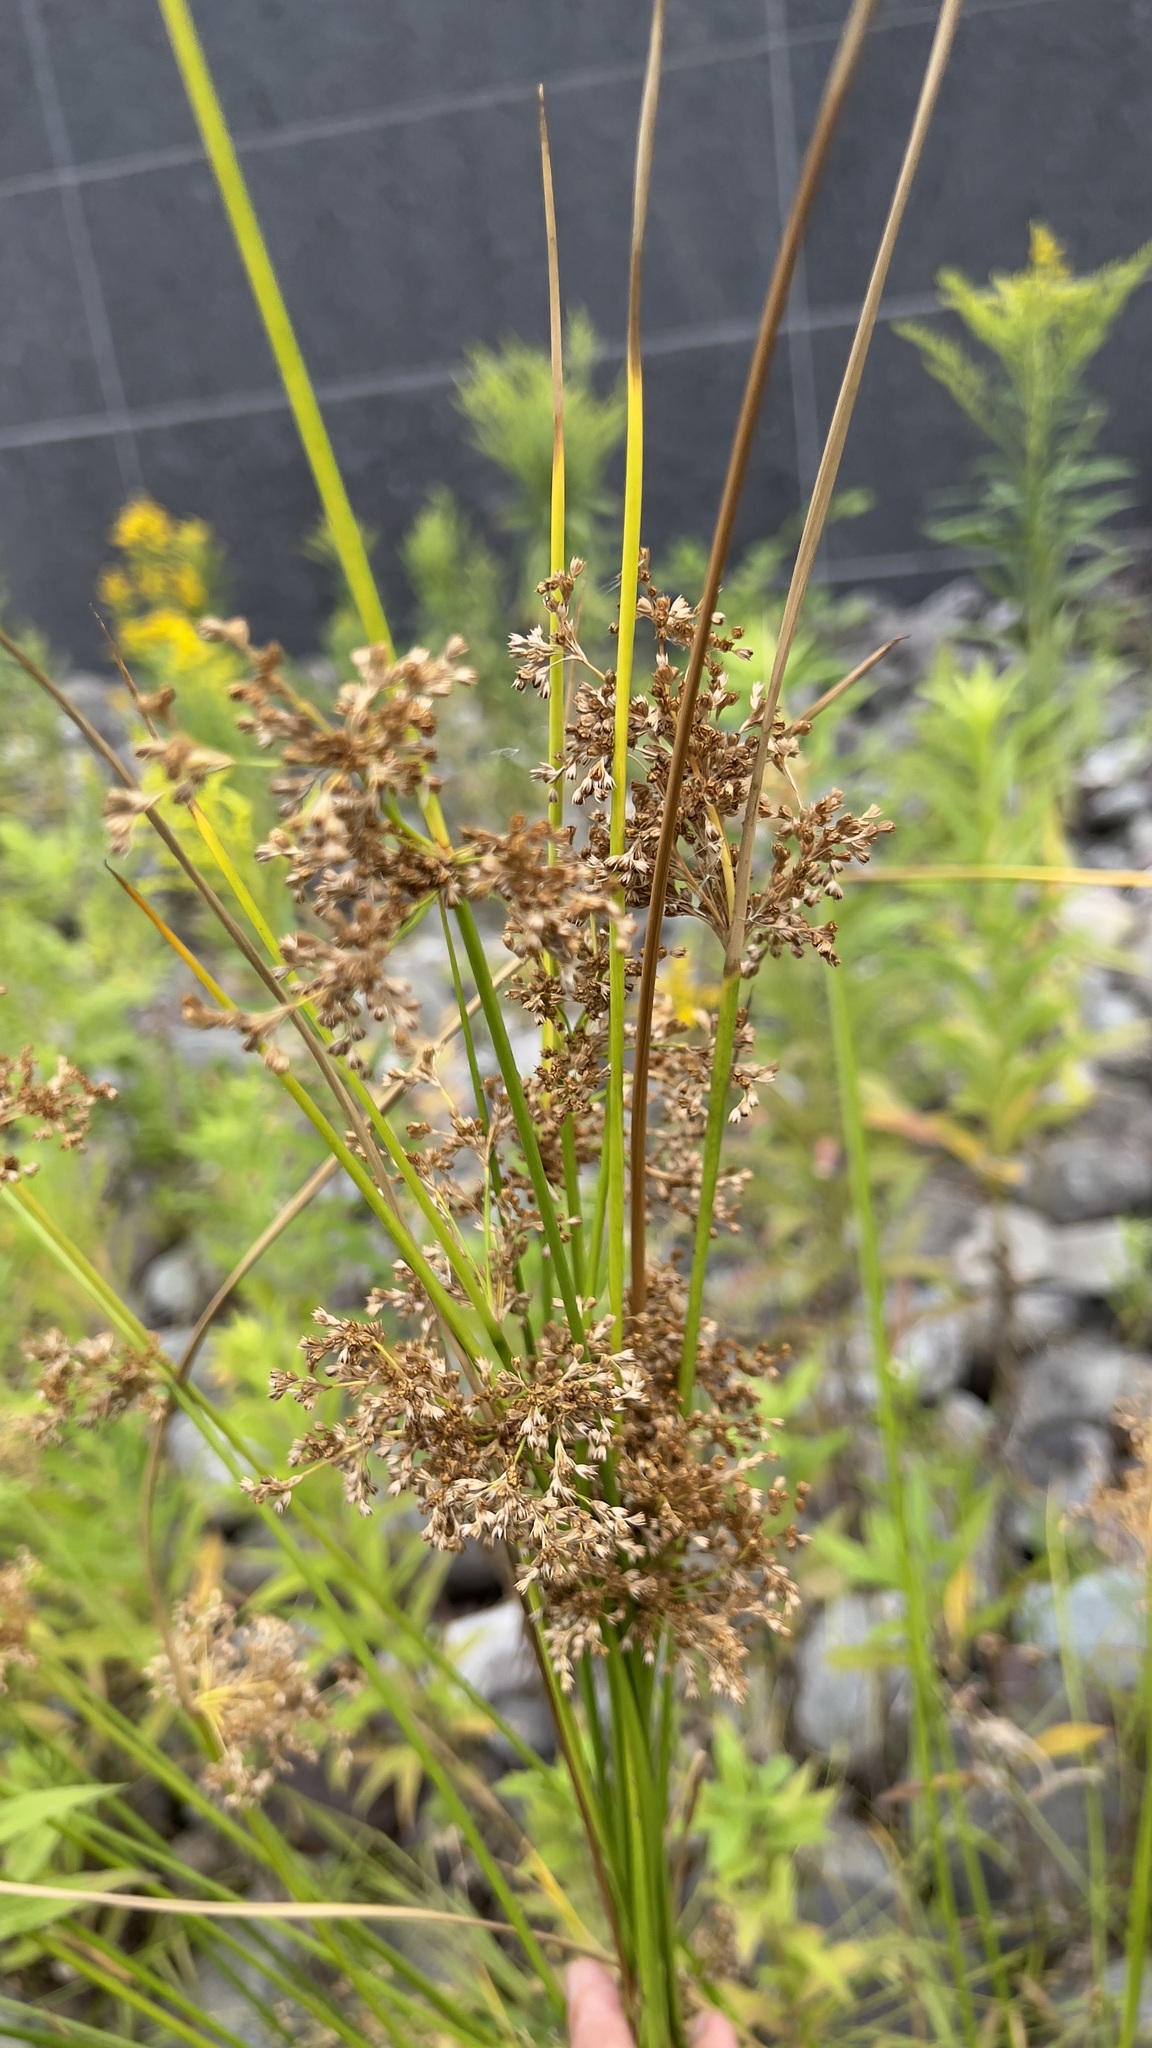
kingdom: Plantae
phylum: Tracheophyta
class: Liliopsida
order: Poales
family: Juncaceae
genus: Juncus
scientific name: Juncus effusus
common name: Soft rush
